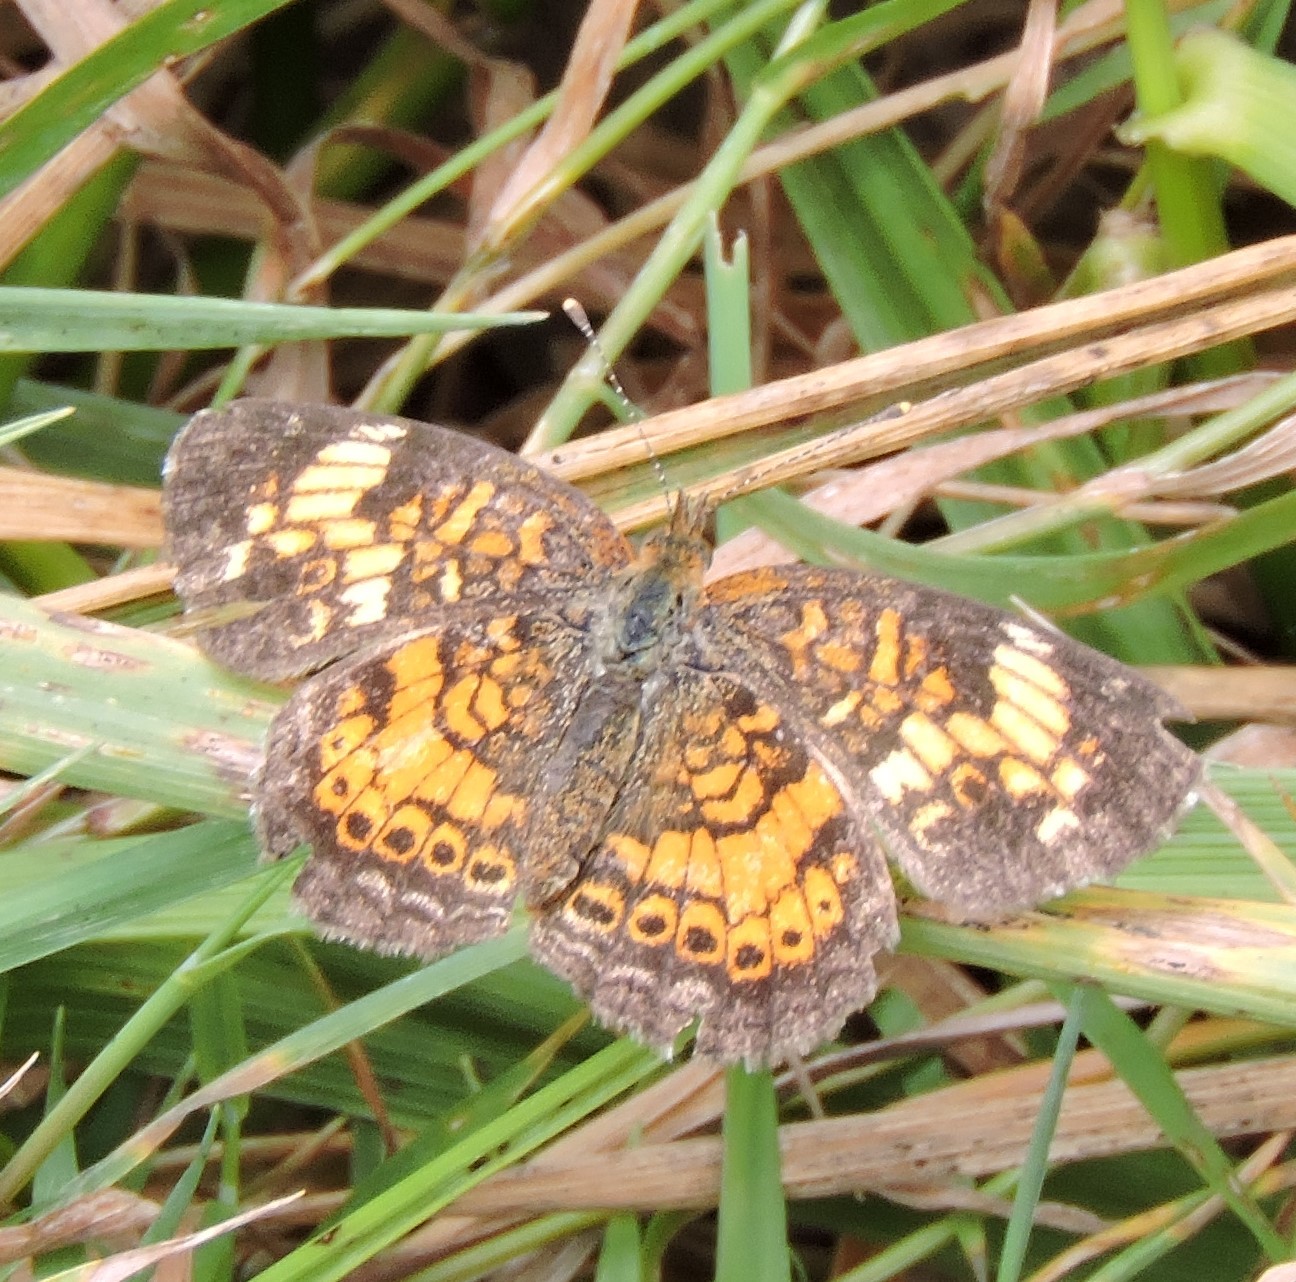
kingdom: Animalia
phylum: Arthropoda
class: Insecta
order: Lepidoptera
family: Nymphalidae
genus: Phyciodes
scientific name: Phyciodes tharos
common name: Pearl crescent
